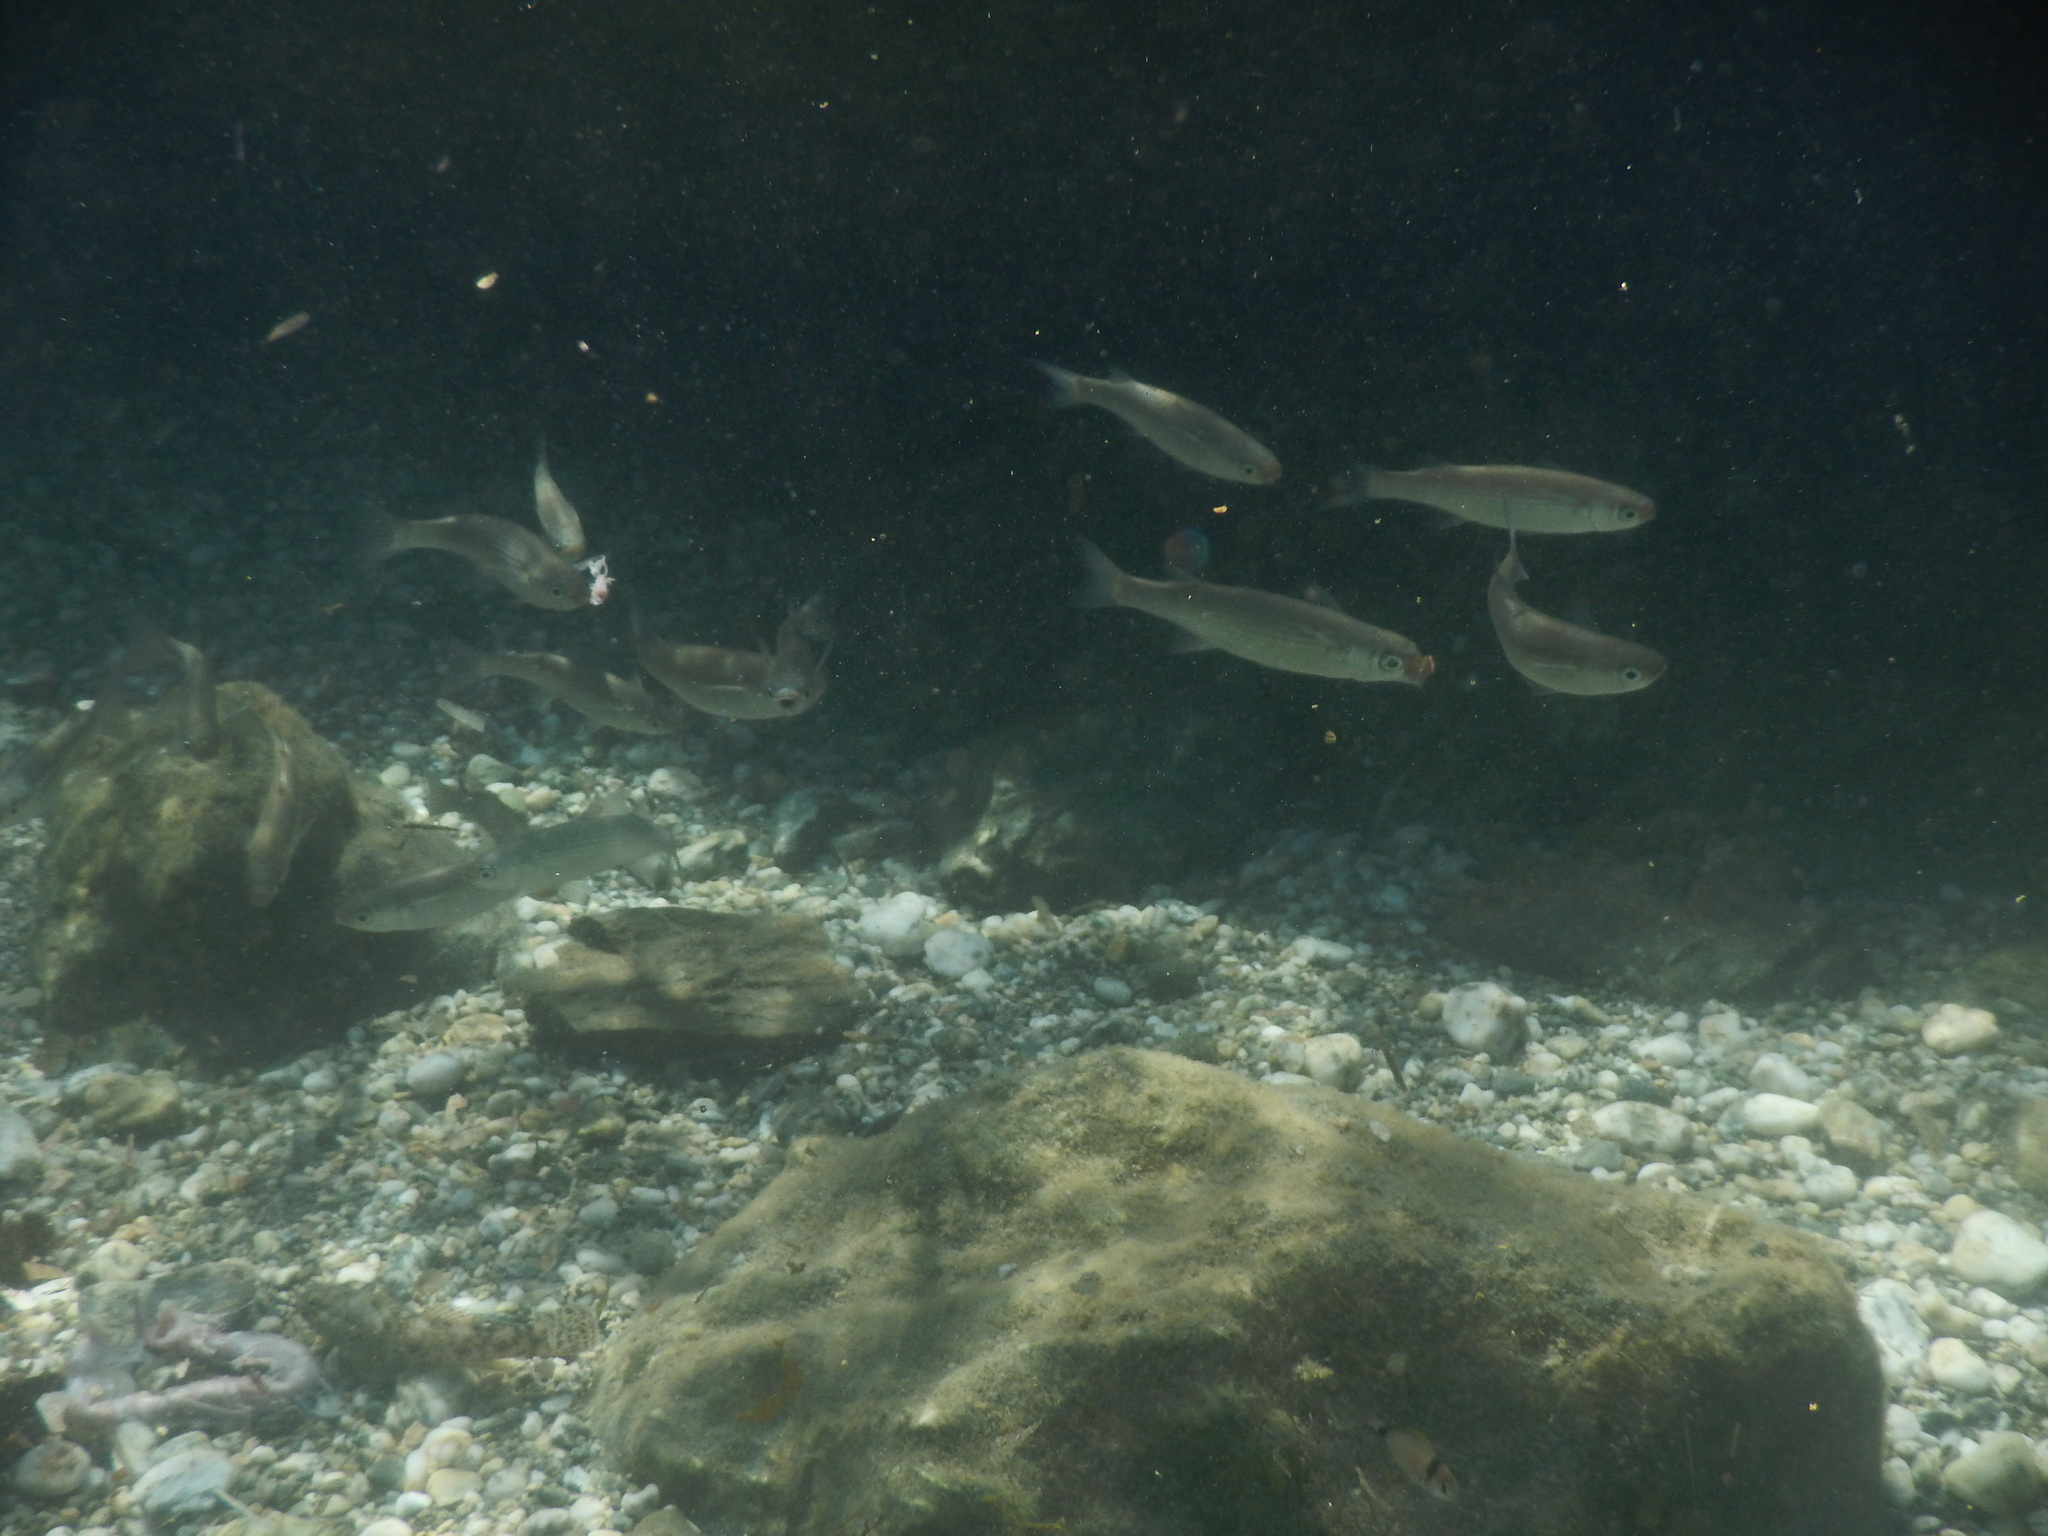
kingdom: Animalia
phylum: Chordata
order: Mugiliformes
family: Mugilidae
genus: Oedalechilus
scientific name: Oedalechilus labeo
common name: Boxlip mullet
